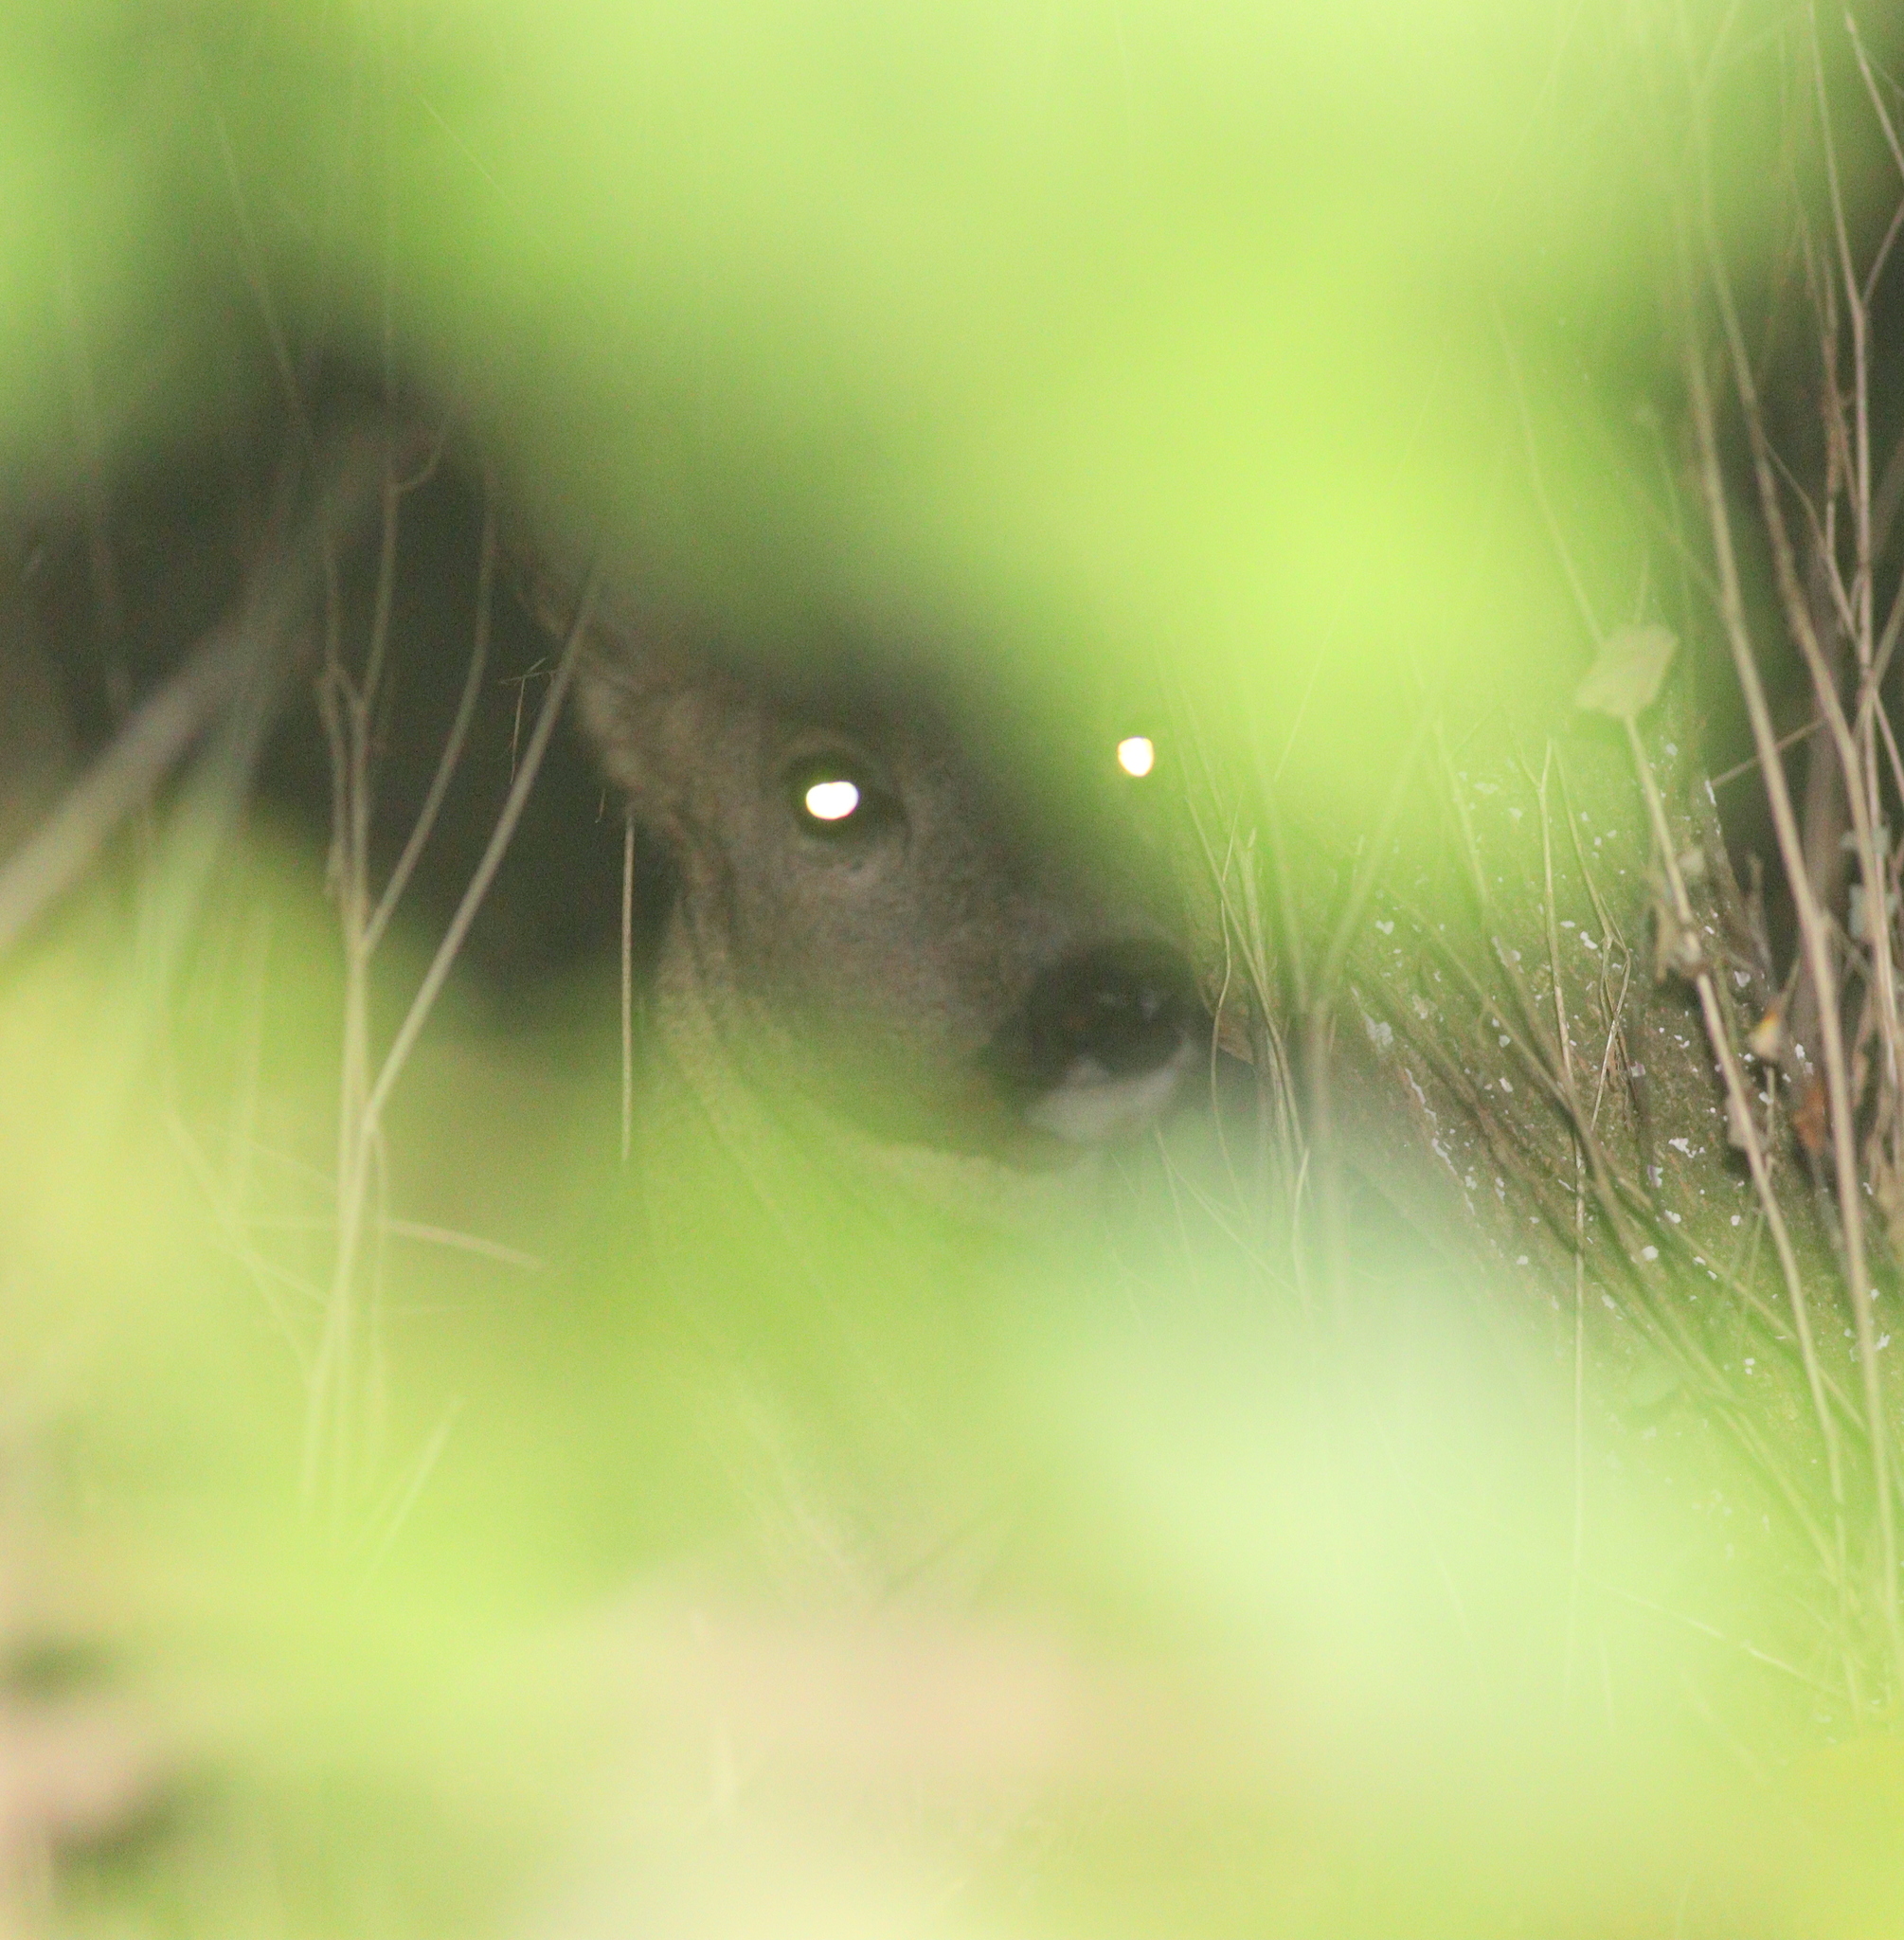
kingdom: Animalia
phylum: Chordata
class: Mammalia
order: Artiodactyla
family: Cervidae
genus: Capreolus
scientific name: Capreolus capreolus
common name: Western roe deer
